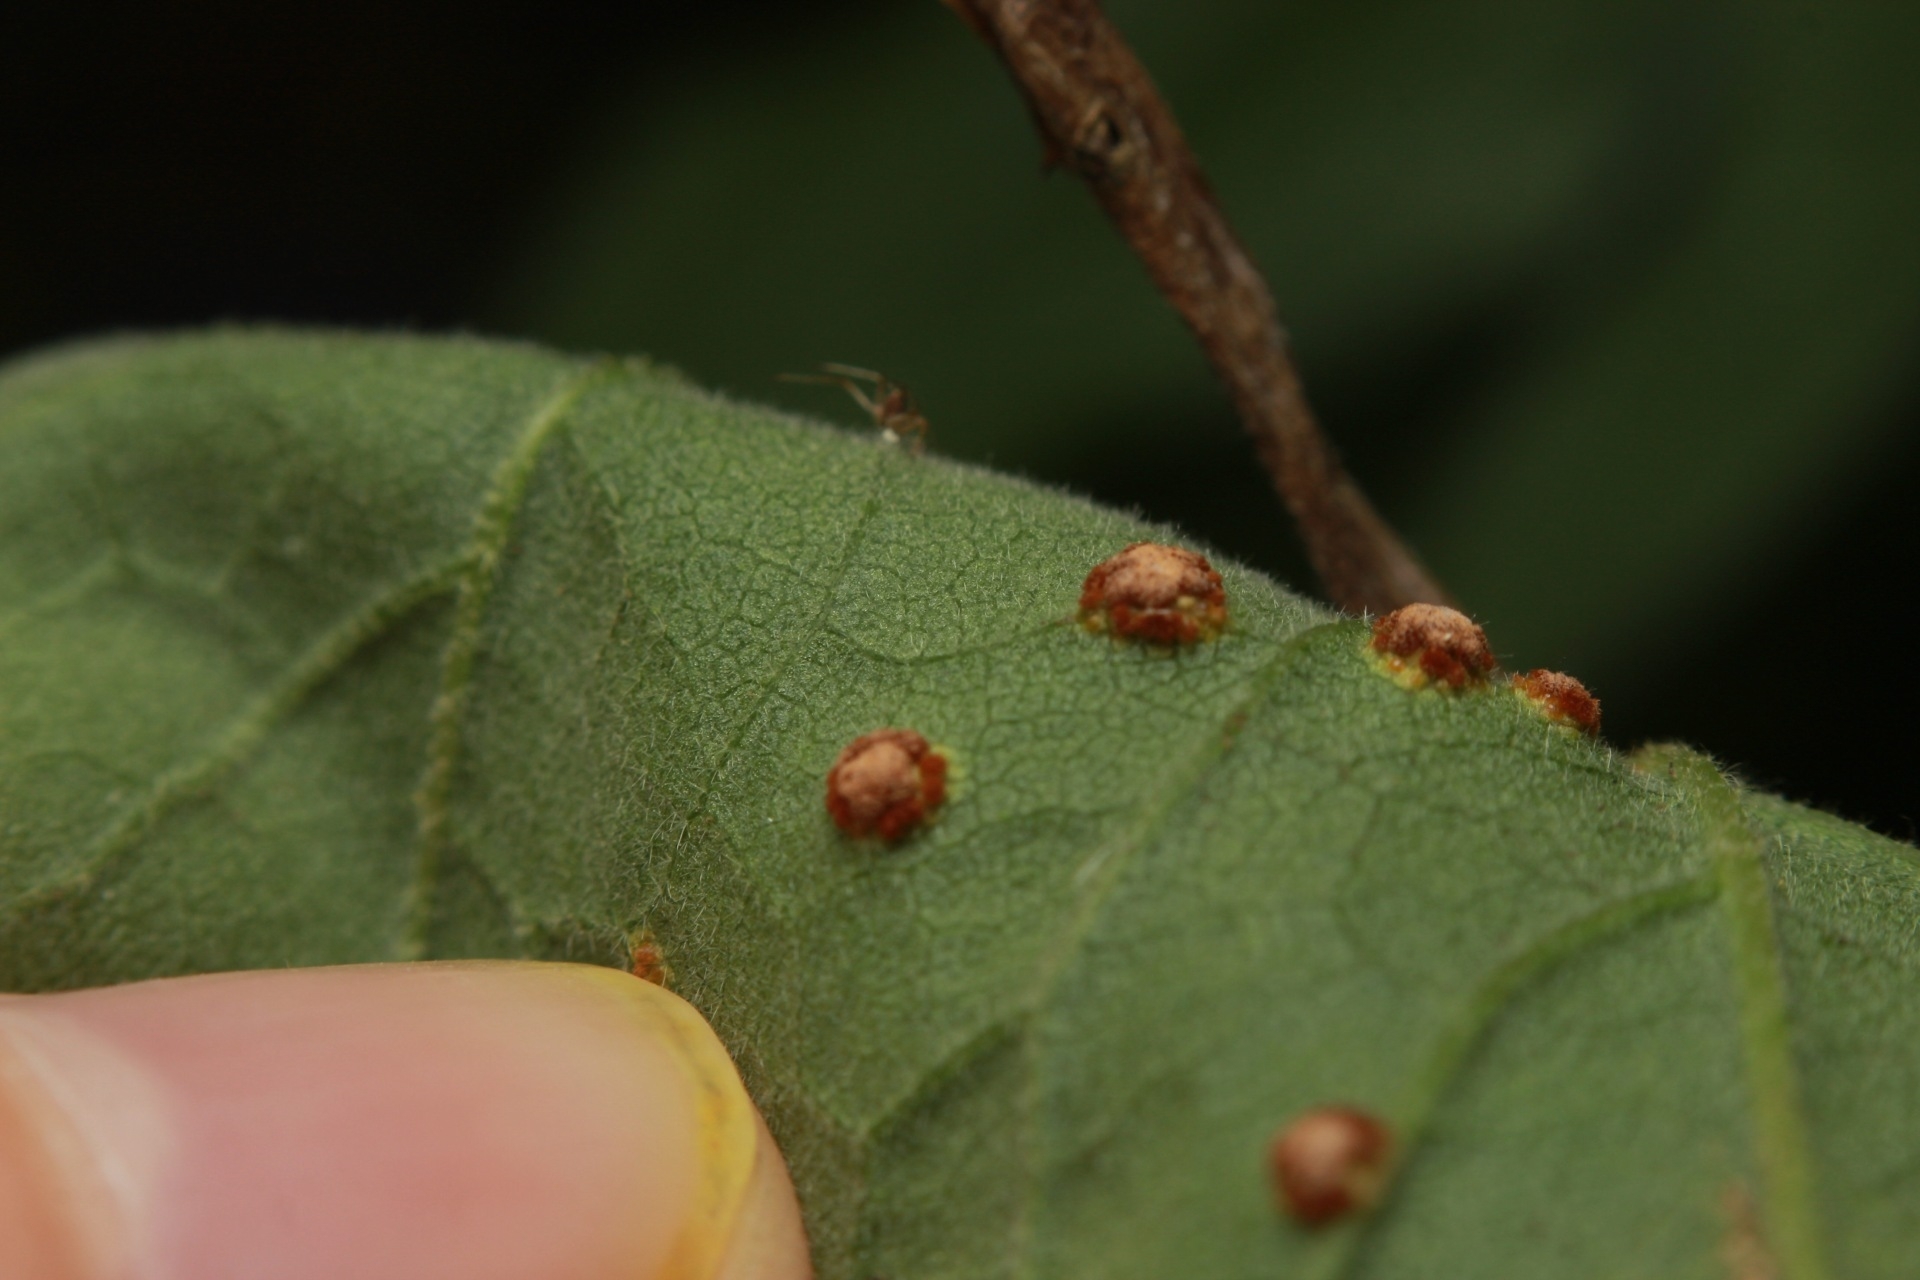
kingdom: Fungi
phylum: Basidiomycota
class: Pucciniomycetes
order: Pucciniales
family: Pucciniaceae
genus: Puccinia
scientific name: Puccinia malvacearum
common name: Hollyhock rust
